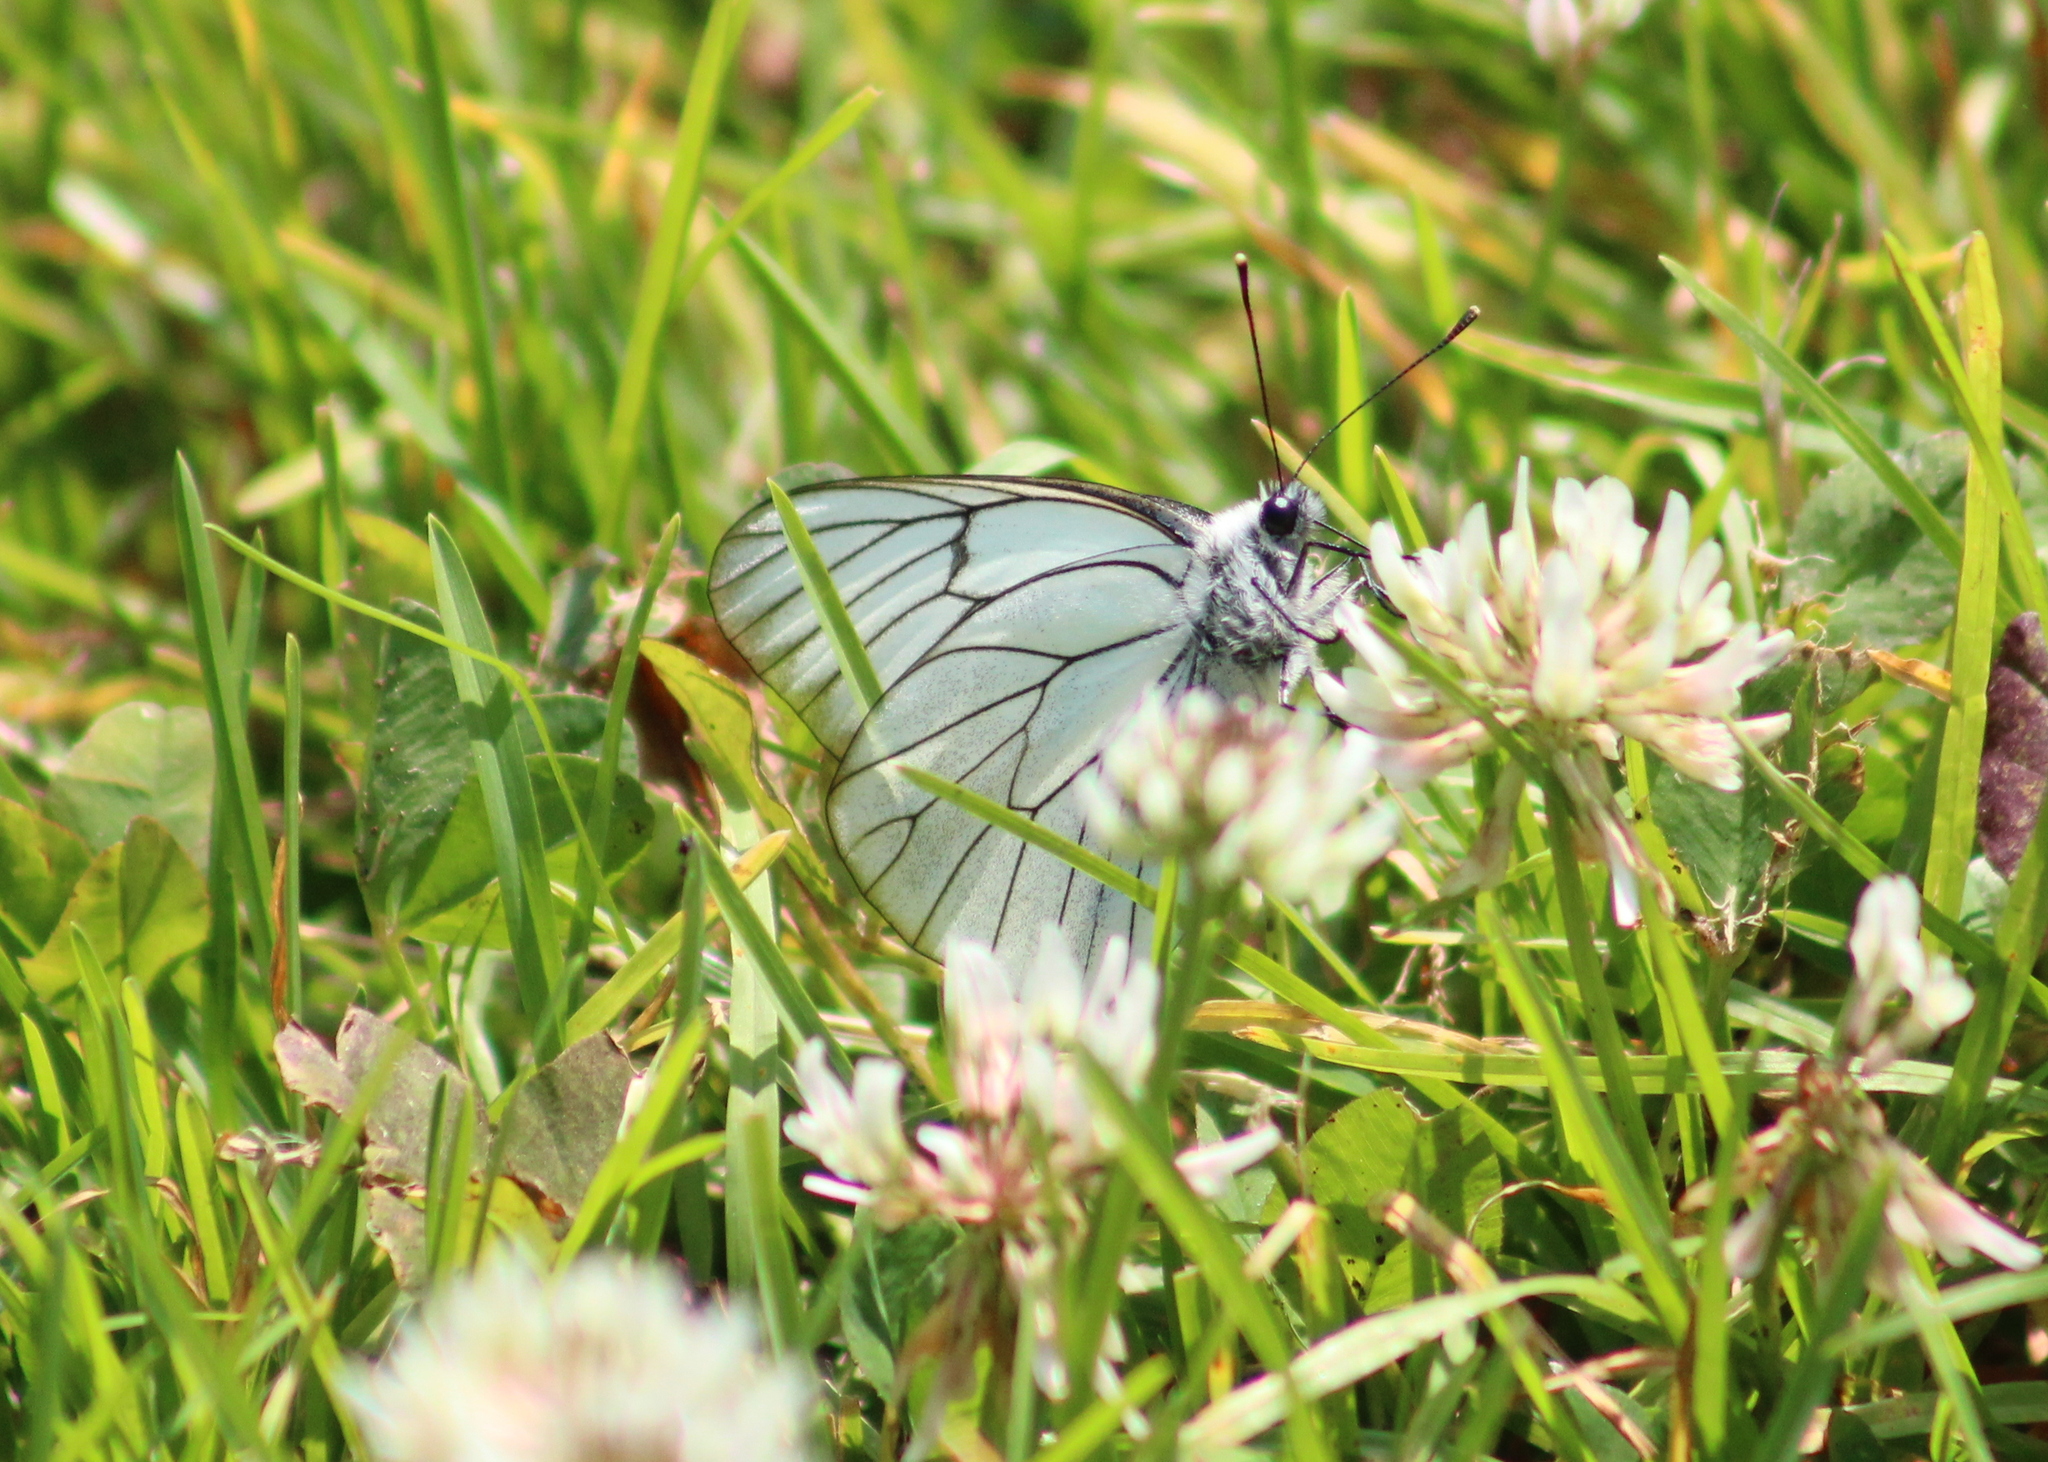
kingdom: Animalia
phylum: Arthropoda
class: Insecta
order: Lepidoptera
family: Pieridae
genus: Aporia
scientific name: Aporia crataegi
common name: Black-veined white
